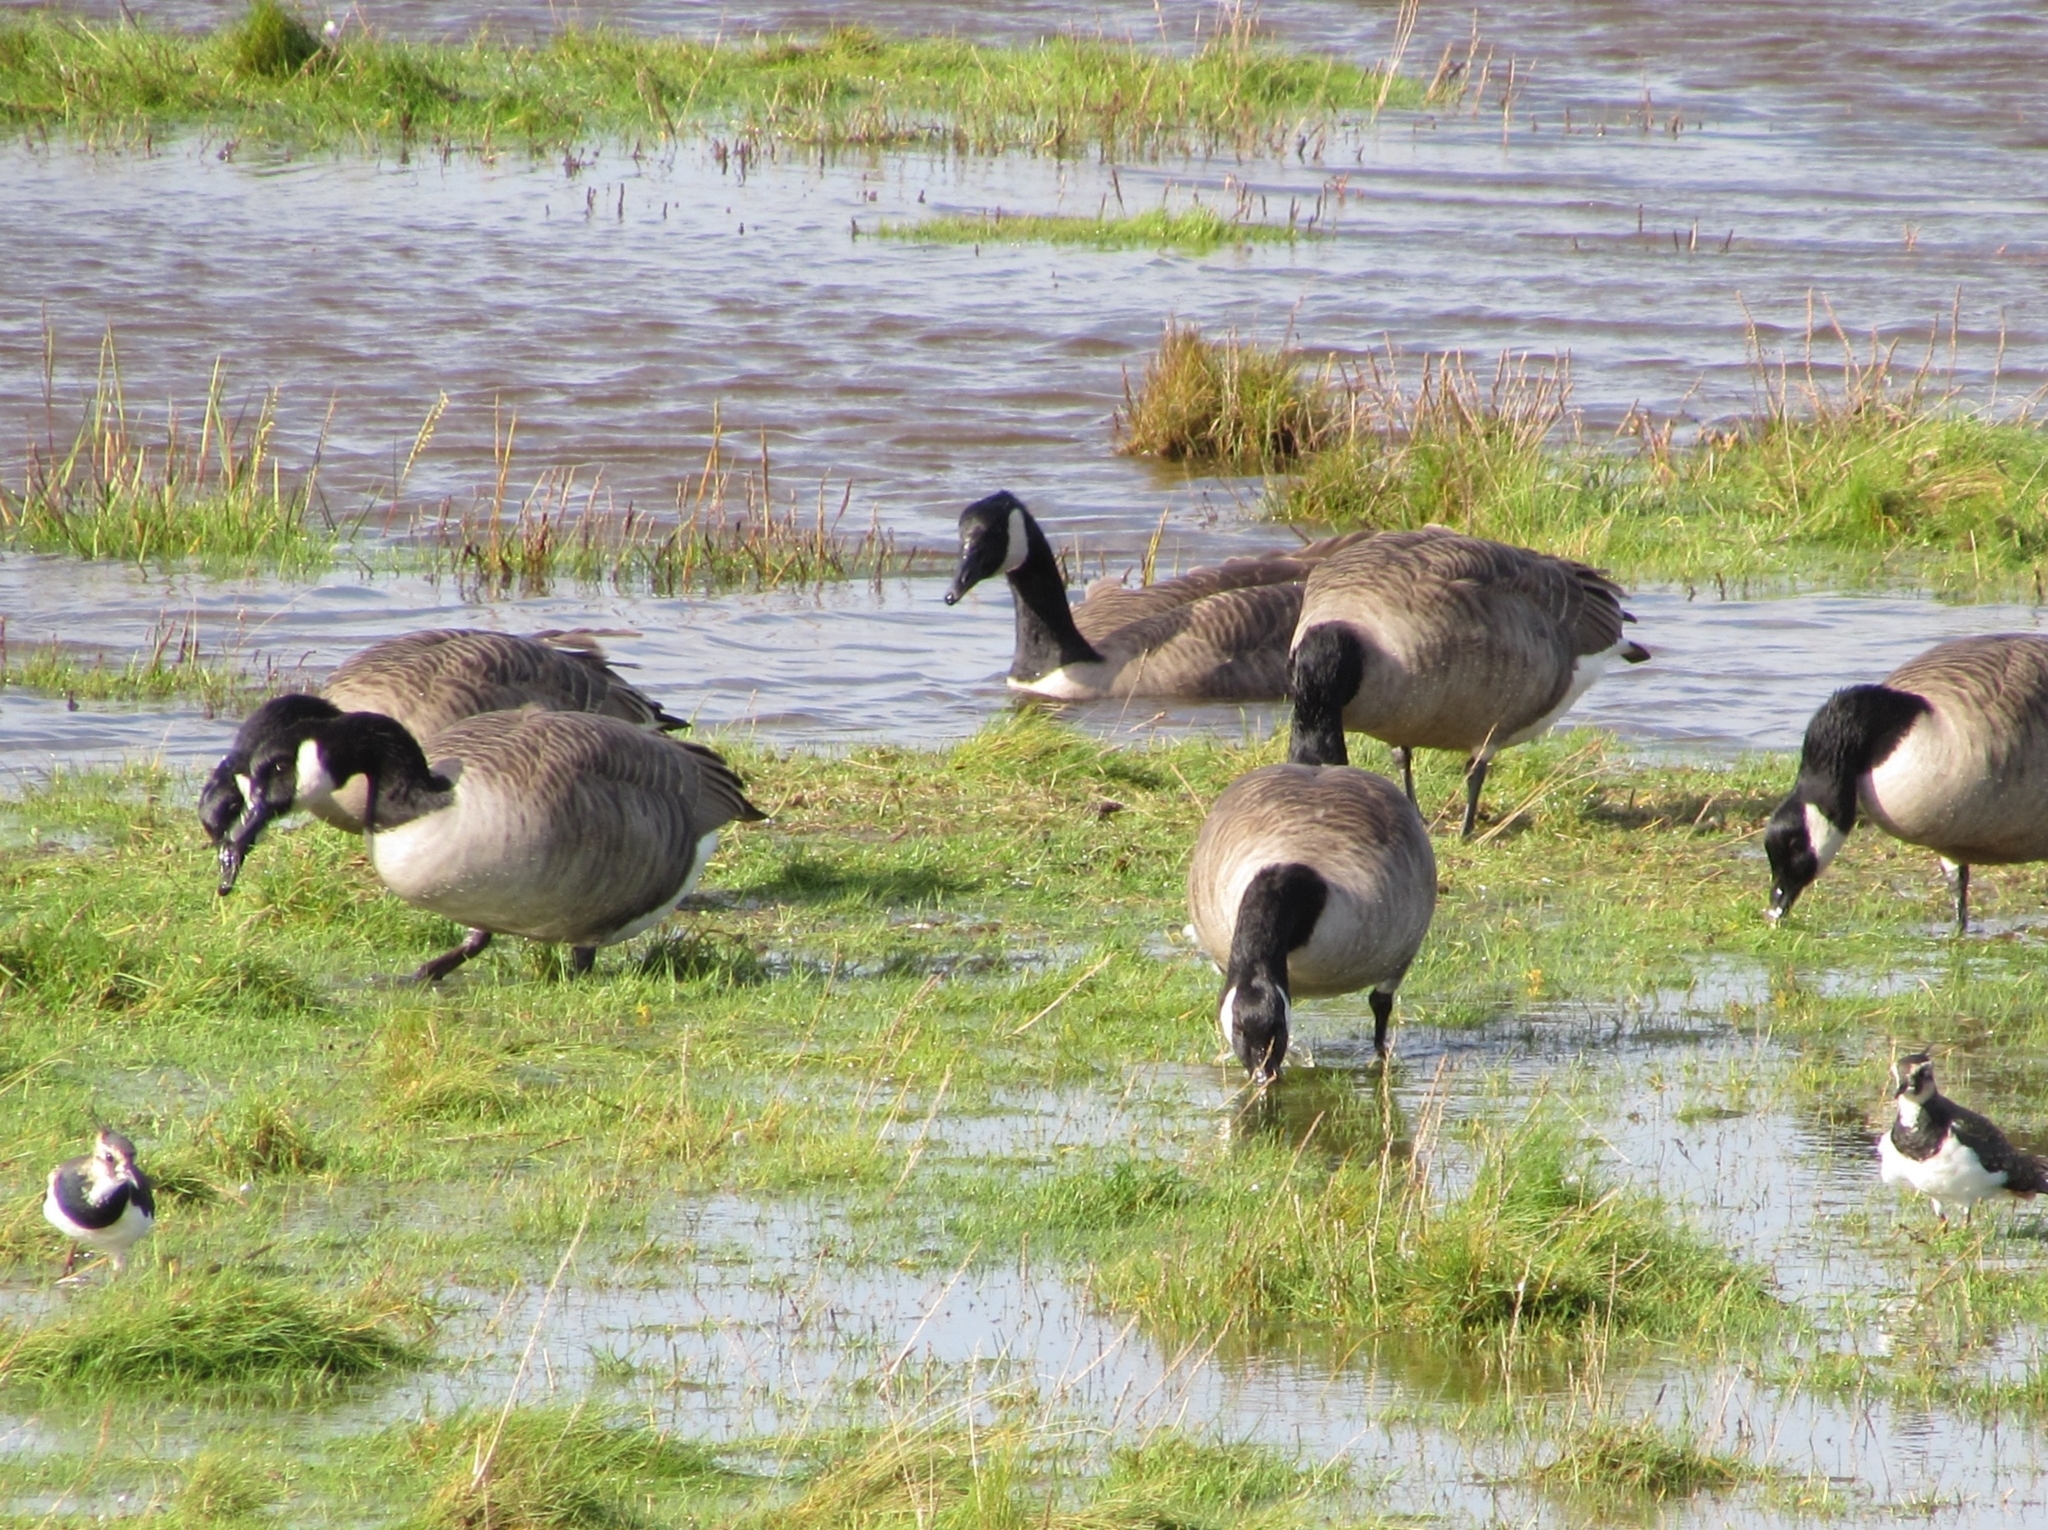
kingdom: Animalia
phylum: Chordata
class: Aves
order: Anseriformes
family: Anatidae
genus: Branta
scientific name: Branta canadensis
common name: Canada goose
